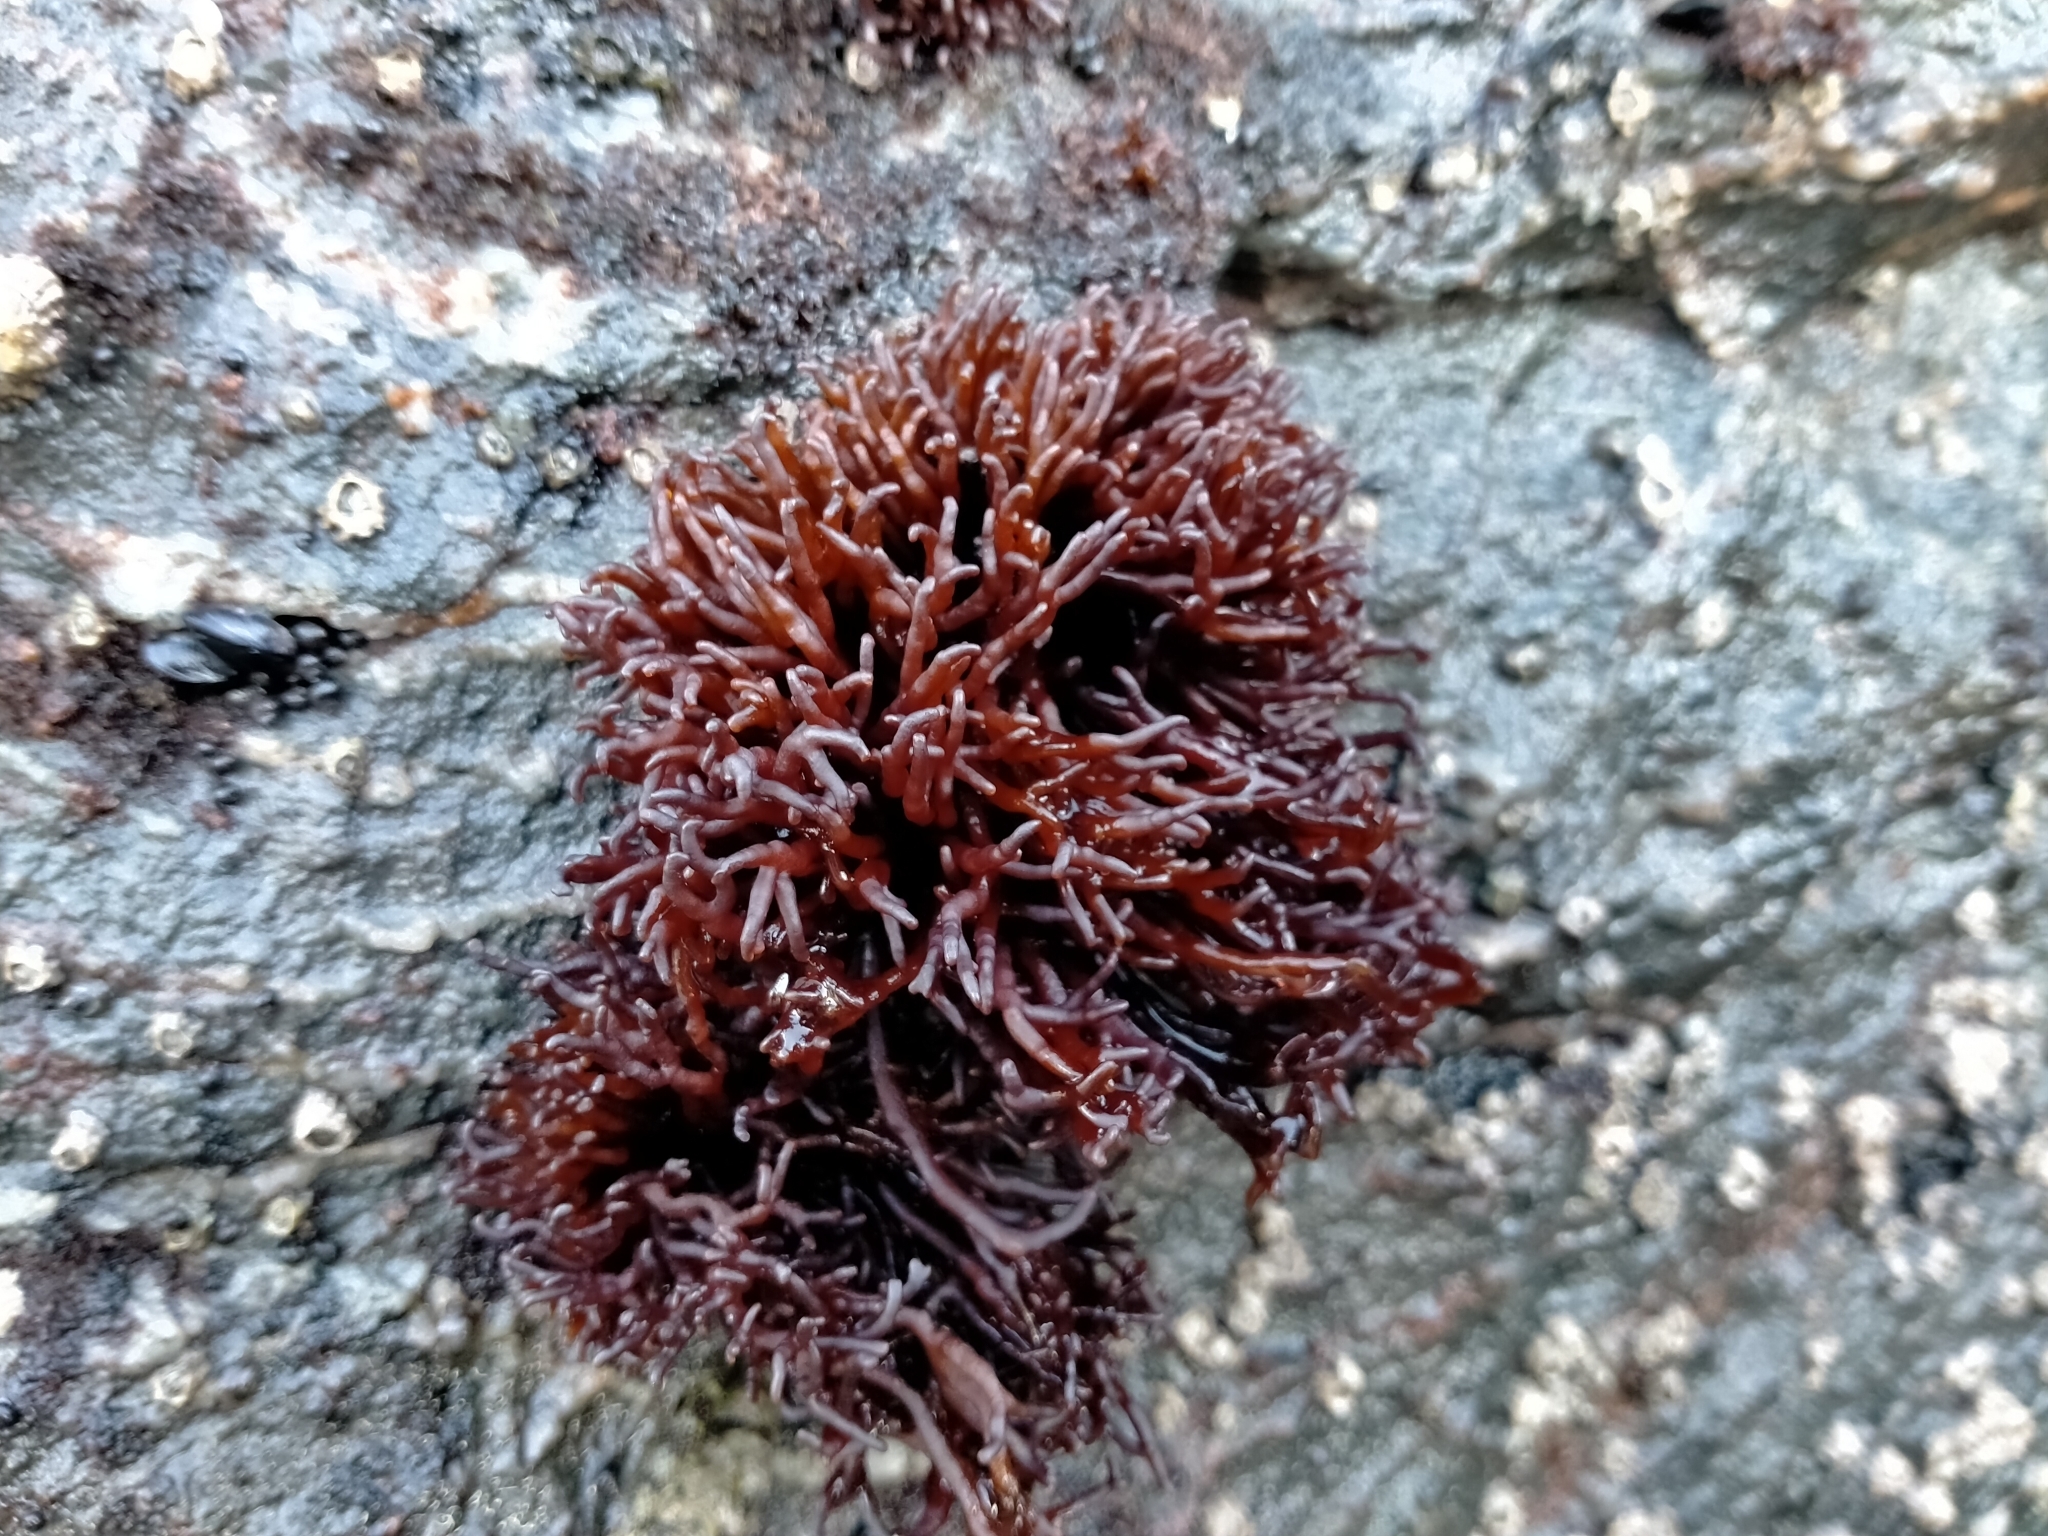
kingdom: Plantae
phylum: Rhodophyta
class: Florideophyceae
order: Hildenbrandiales
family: Hildenbrandiaceae
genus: Apophlaea
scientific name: Apophlaea lyallii
